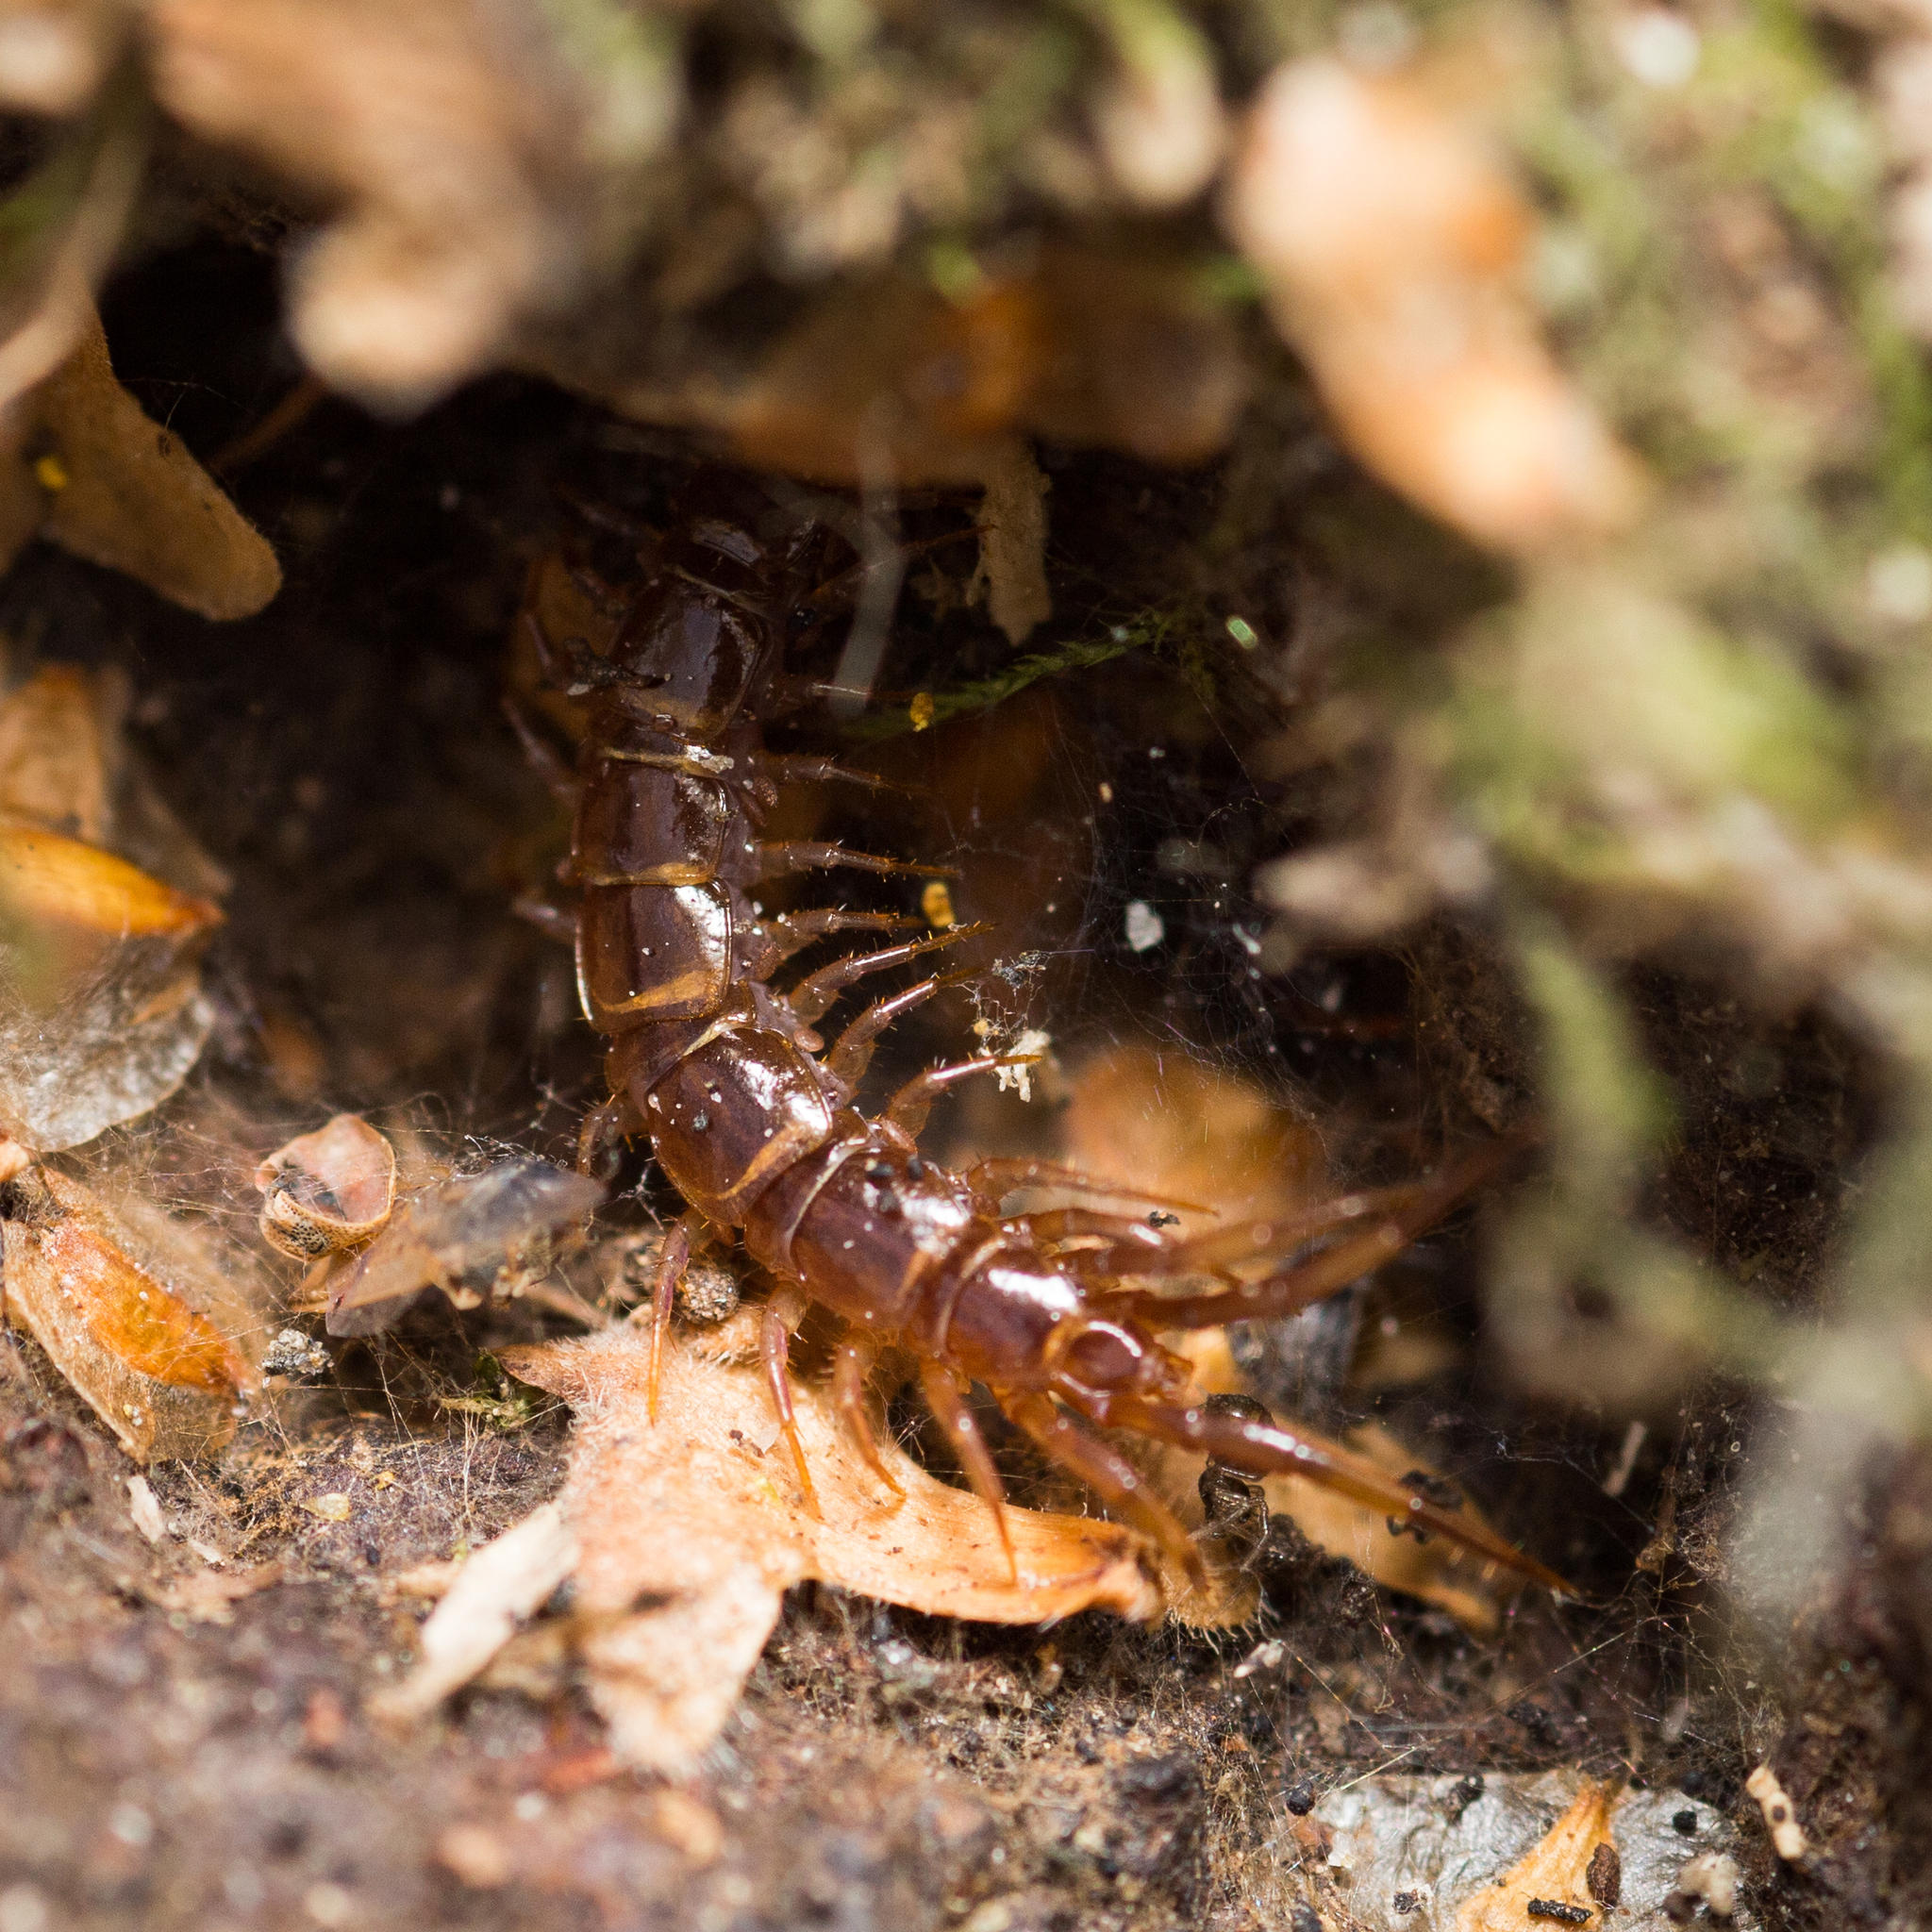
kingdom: Animalia
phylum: Arthropoda
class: Chilopoda
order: Lithobiomorpha
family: Lithobiidae
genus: Lithobius
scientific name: Lithobius forficatus
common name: Centipede
